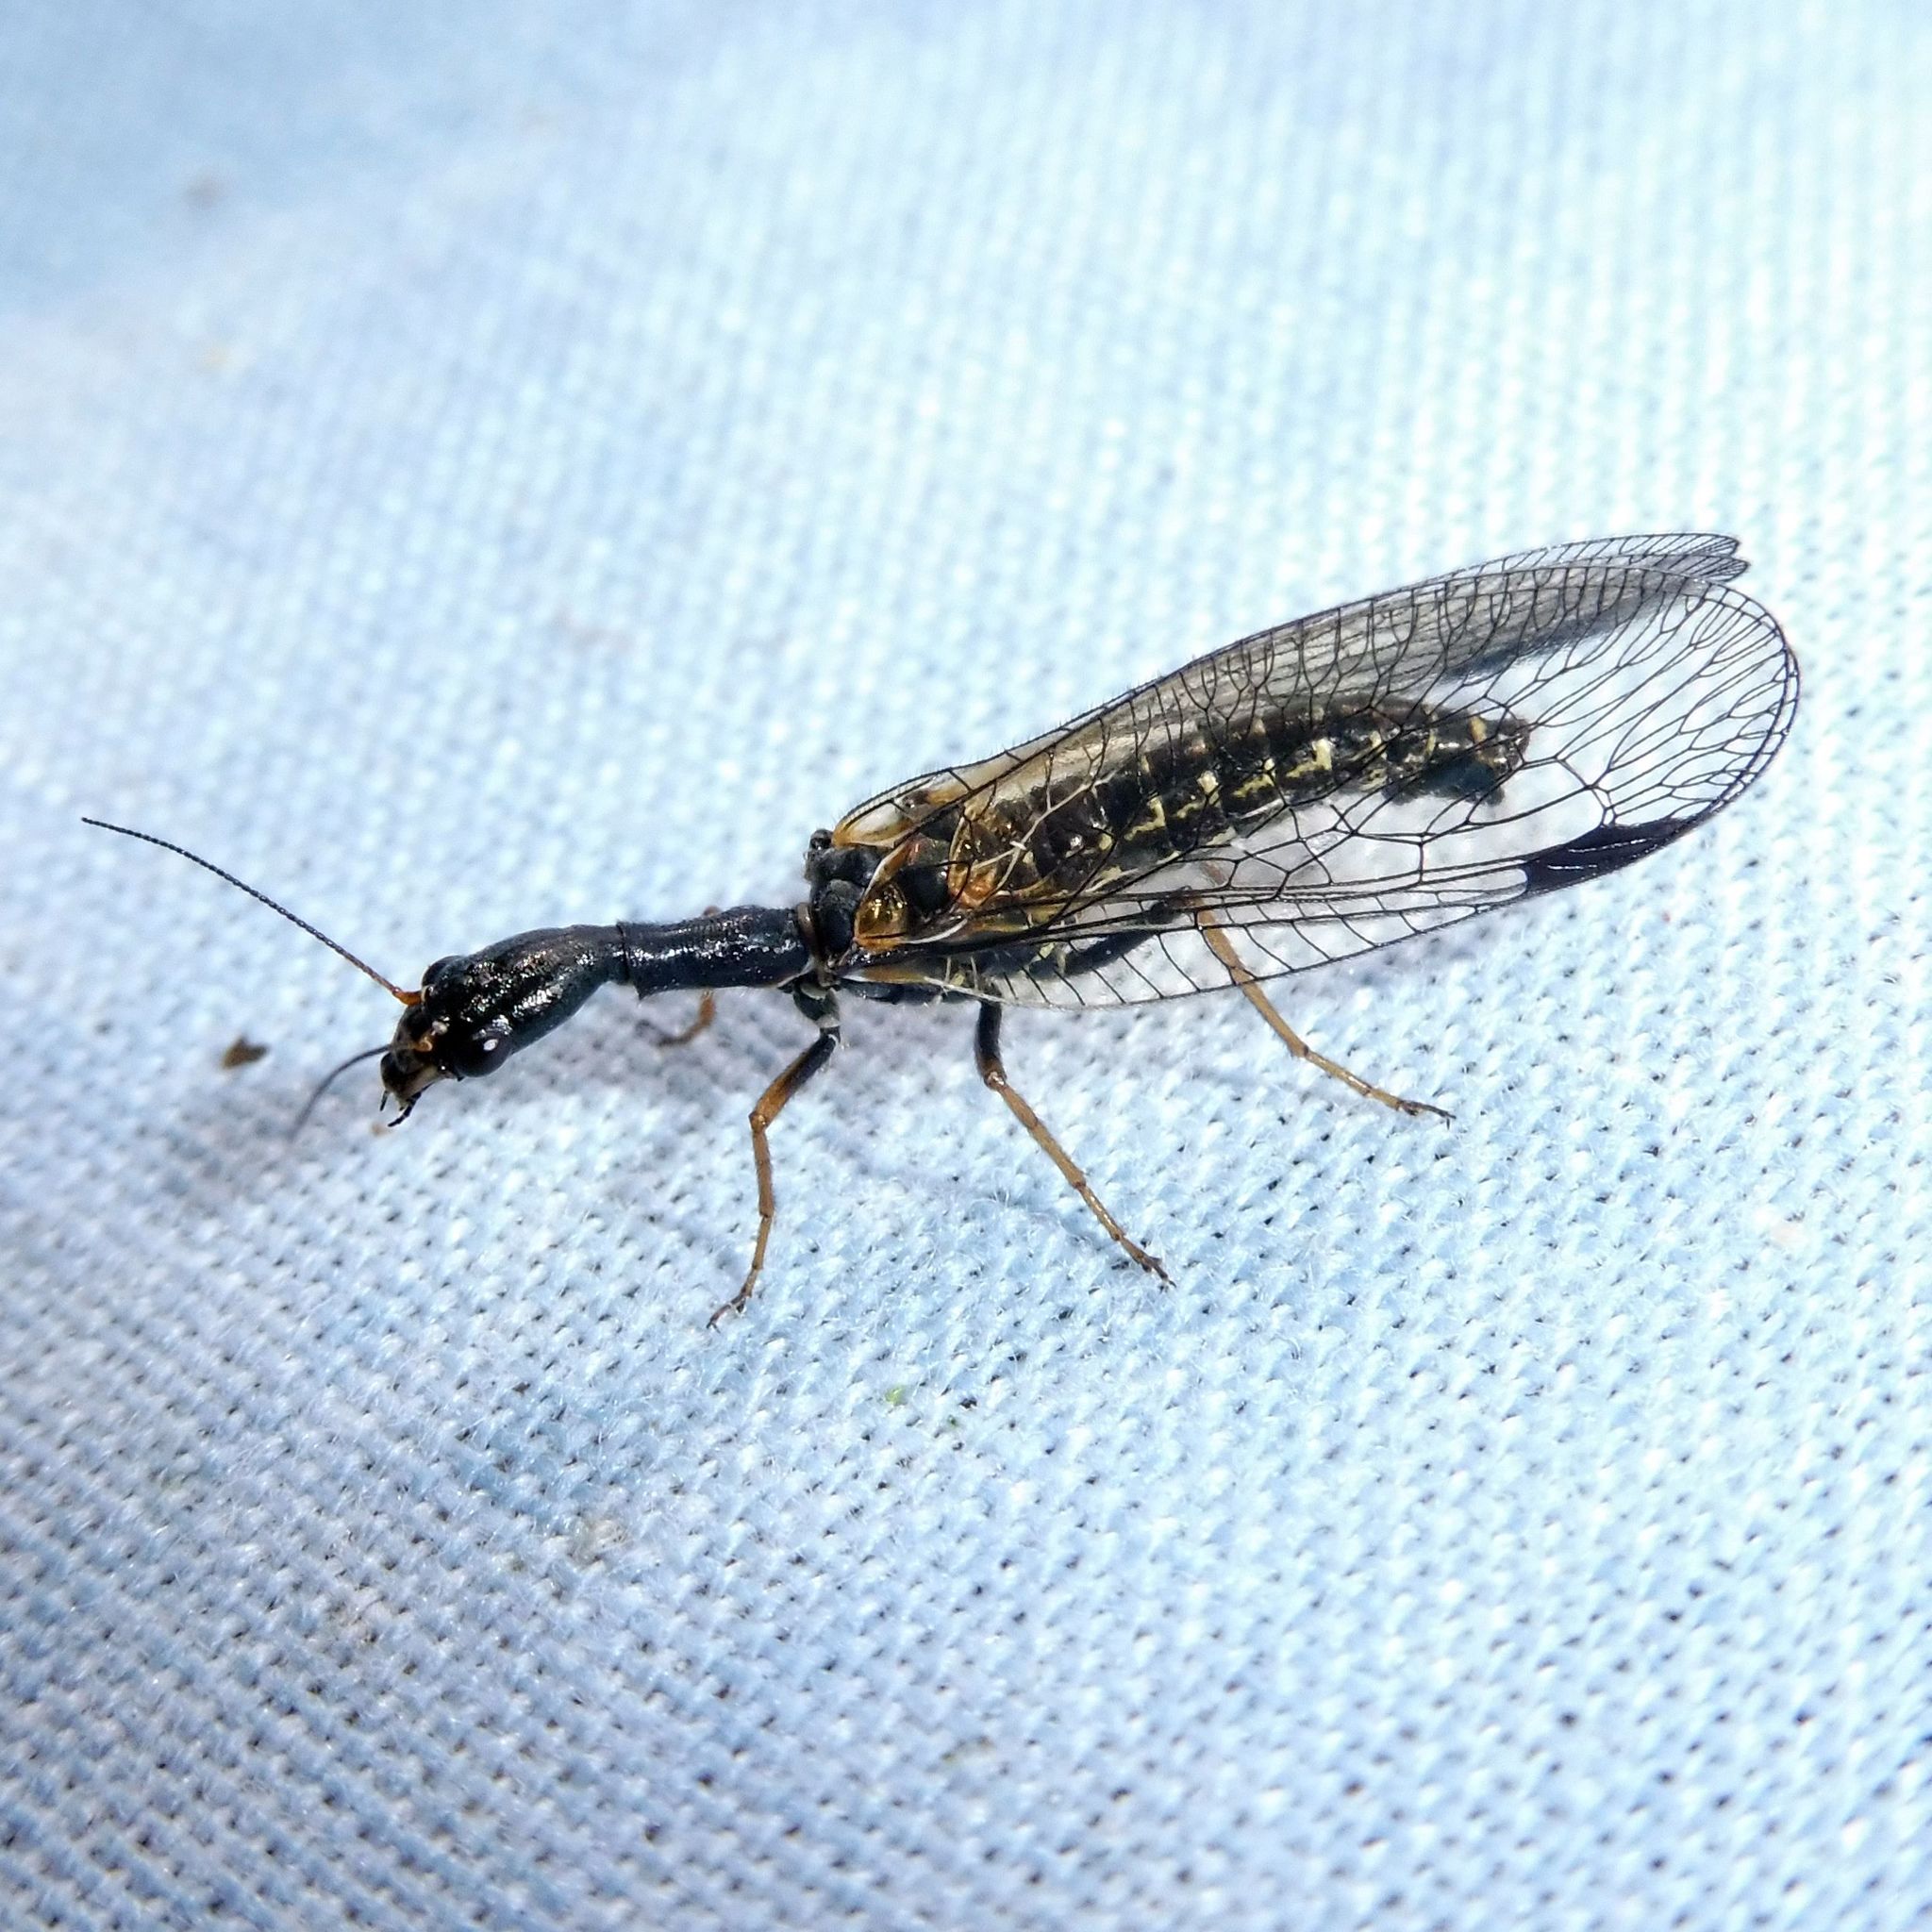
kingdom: Animalia
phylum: Arthropoda
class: Insecta
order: Raphidioptera
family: Raphidiidae
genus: Phaeostigma
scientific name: Phaeostigma notatum
